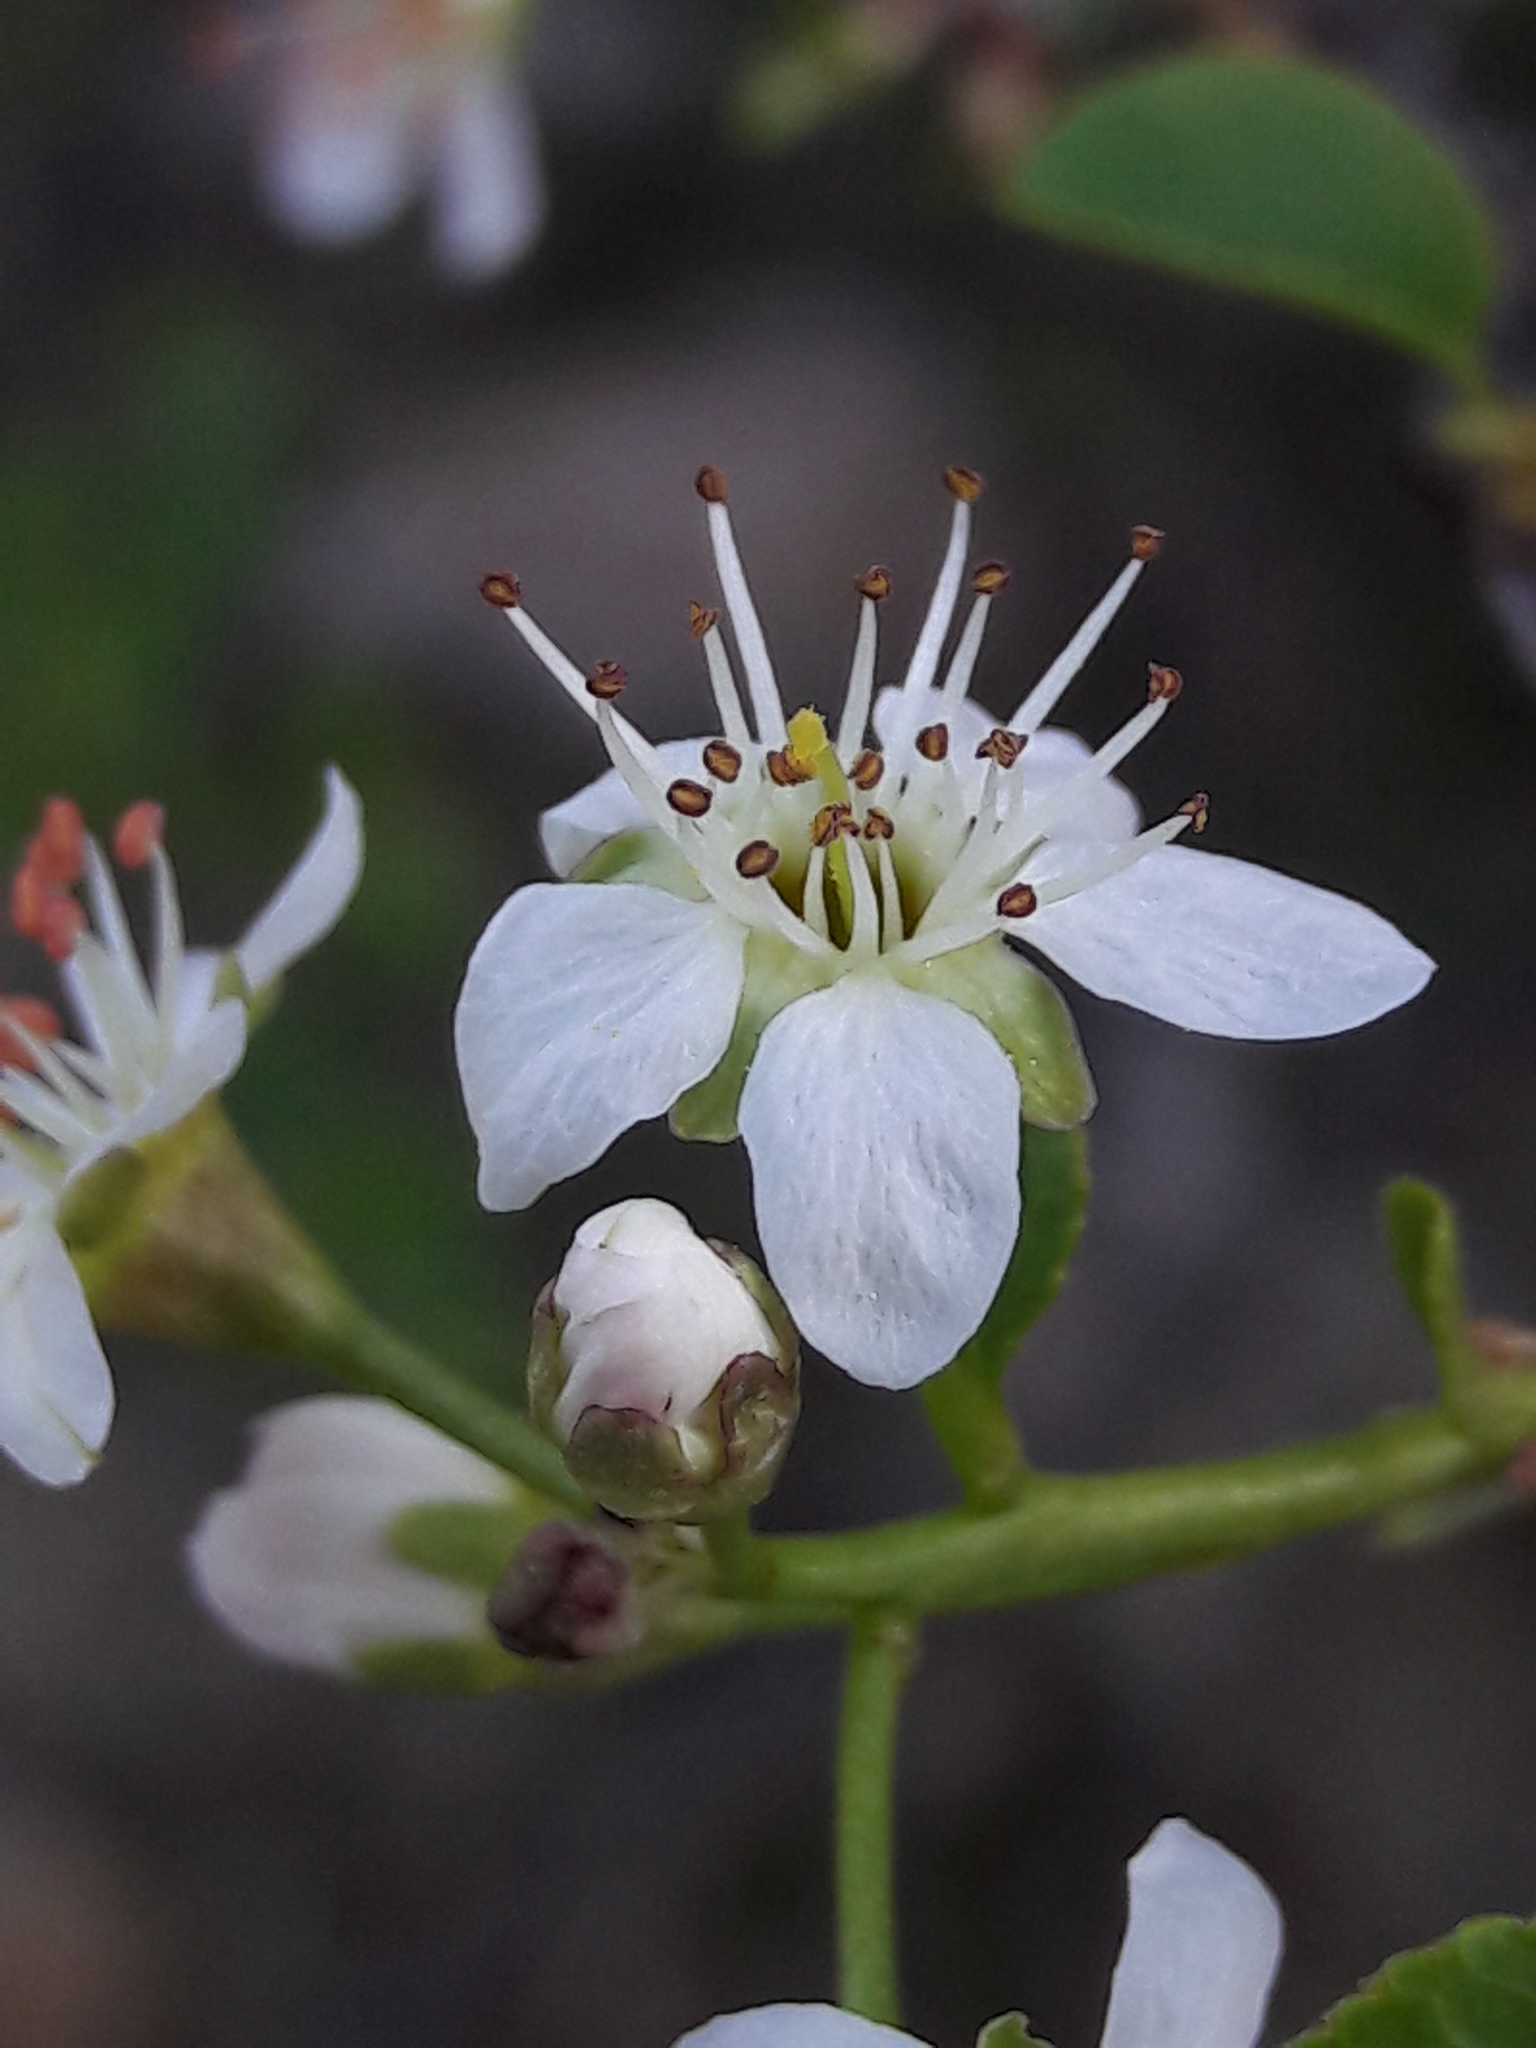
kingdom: Plantae
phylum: Tracheophyta
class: Magnoliopsida
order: Rosales
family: Rosaceae
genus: Prunus
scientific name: Prunus mahaleb
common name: Mahaleb cherry
